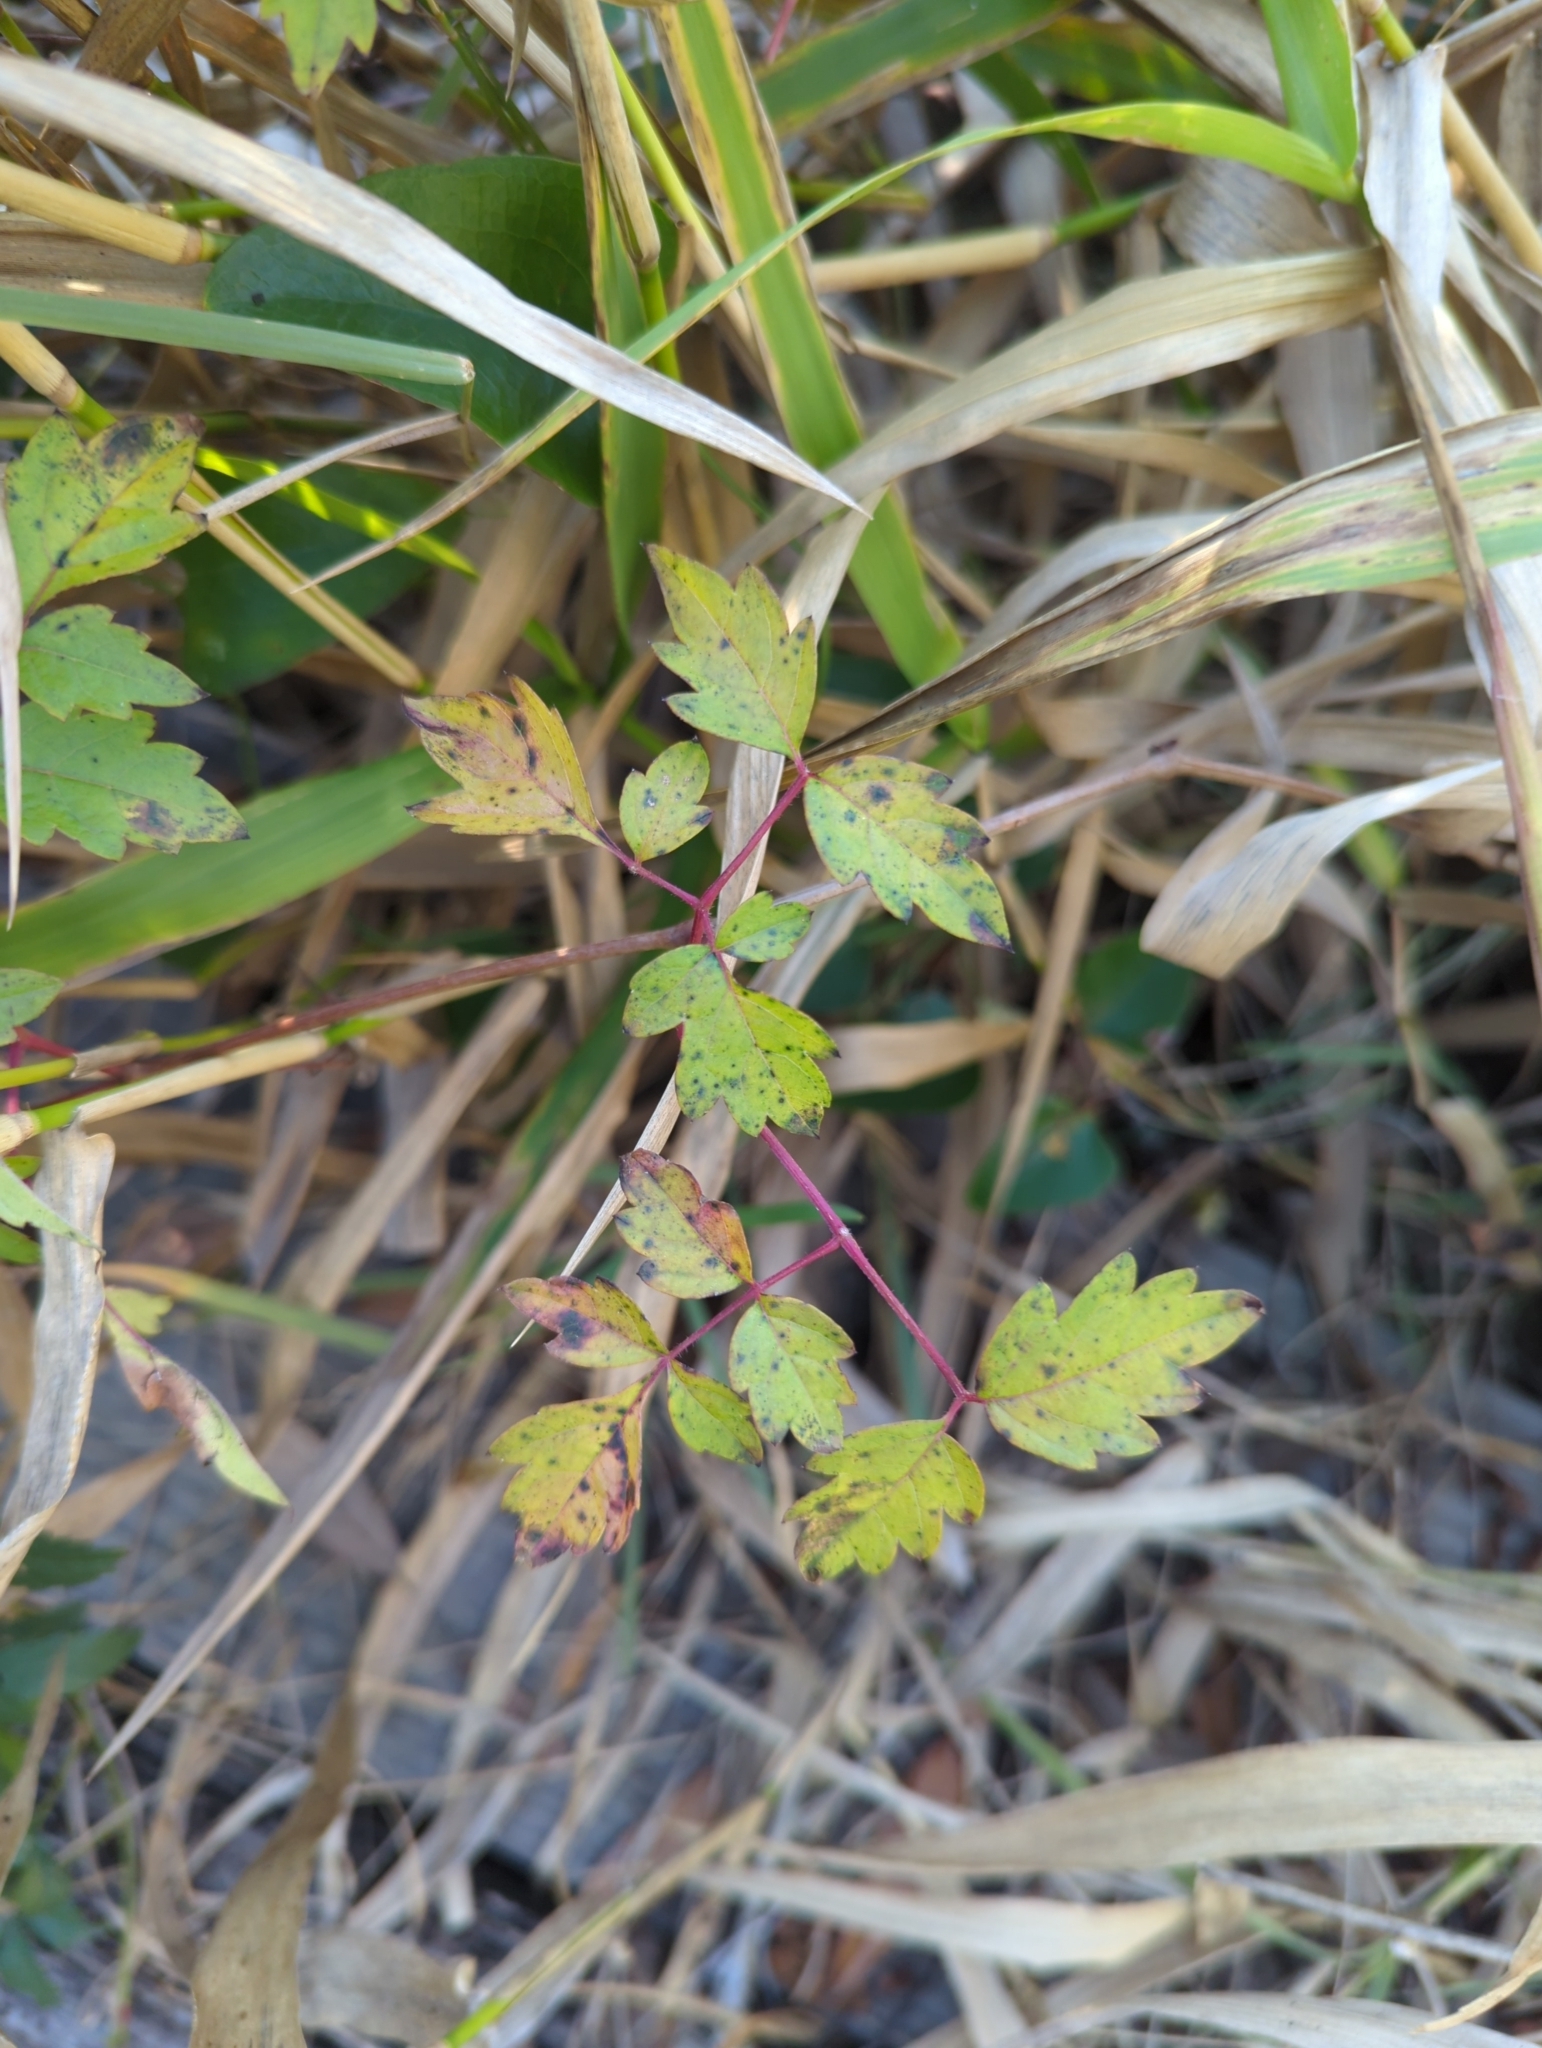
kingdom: Plantae
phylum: Tracheophyta
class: Magnoliopsida
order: Vitales
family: Vitaceae
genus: Nekemias
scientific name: Nekemias arborea
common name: Peppervine
